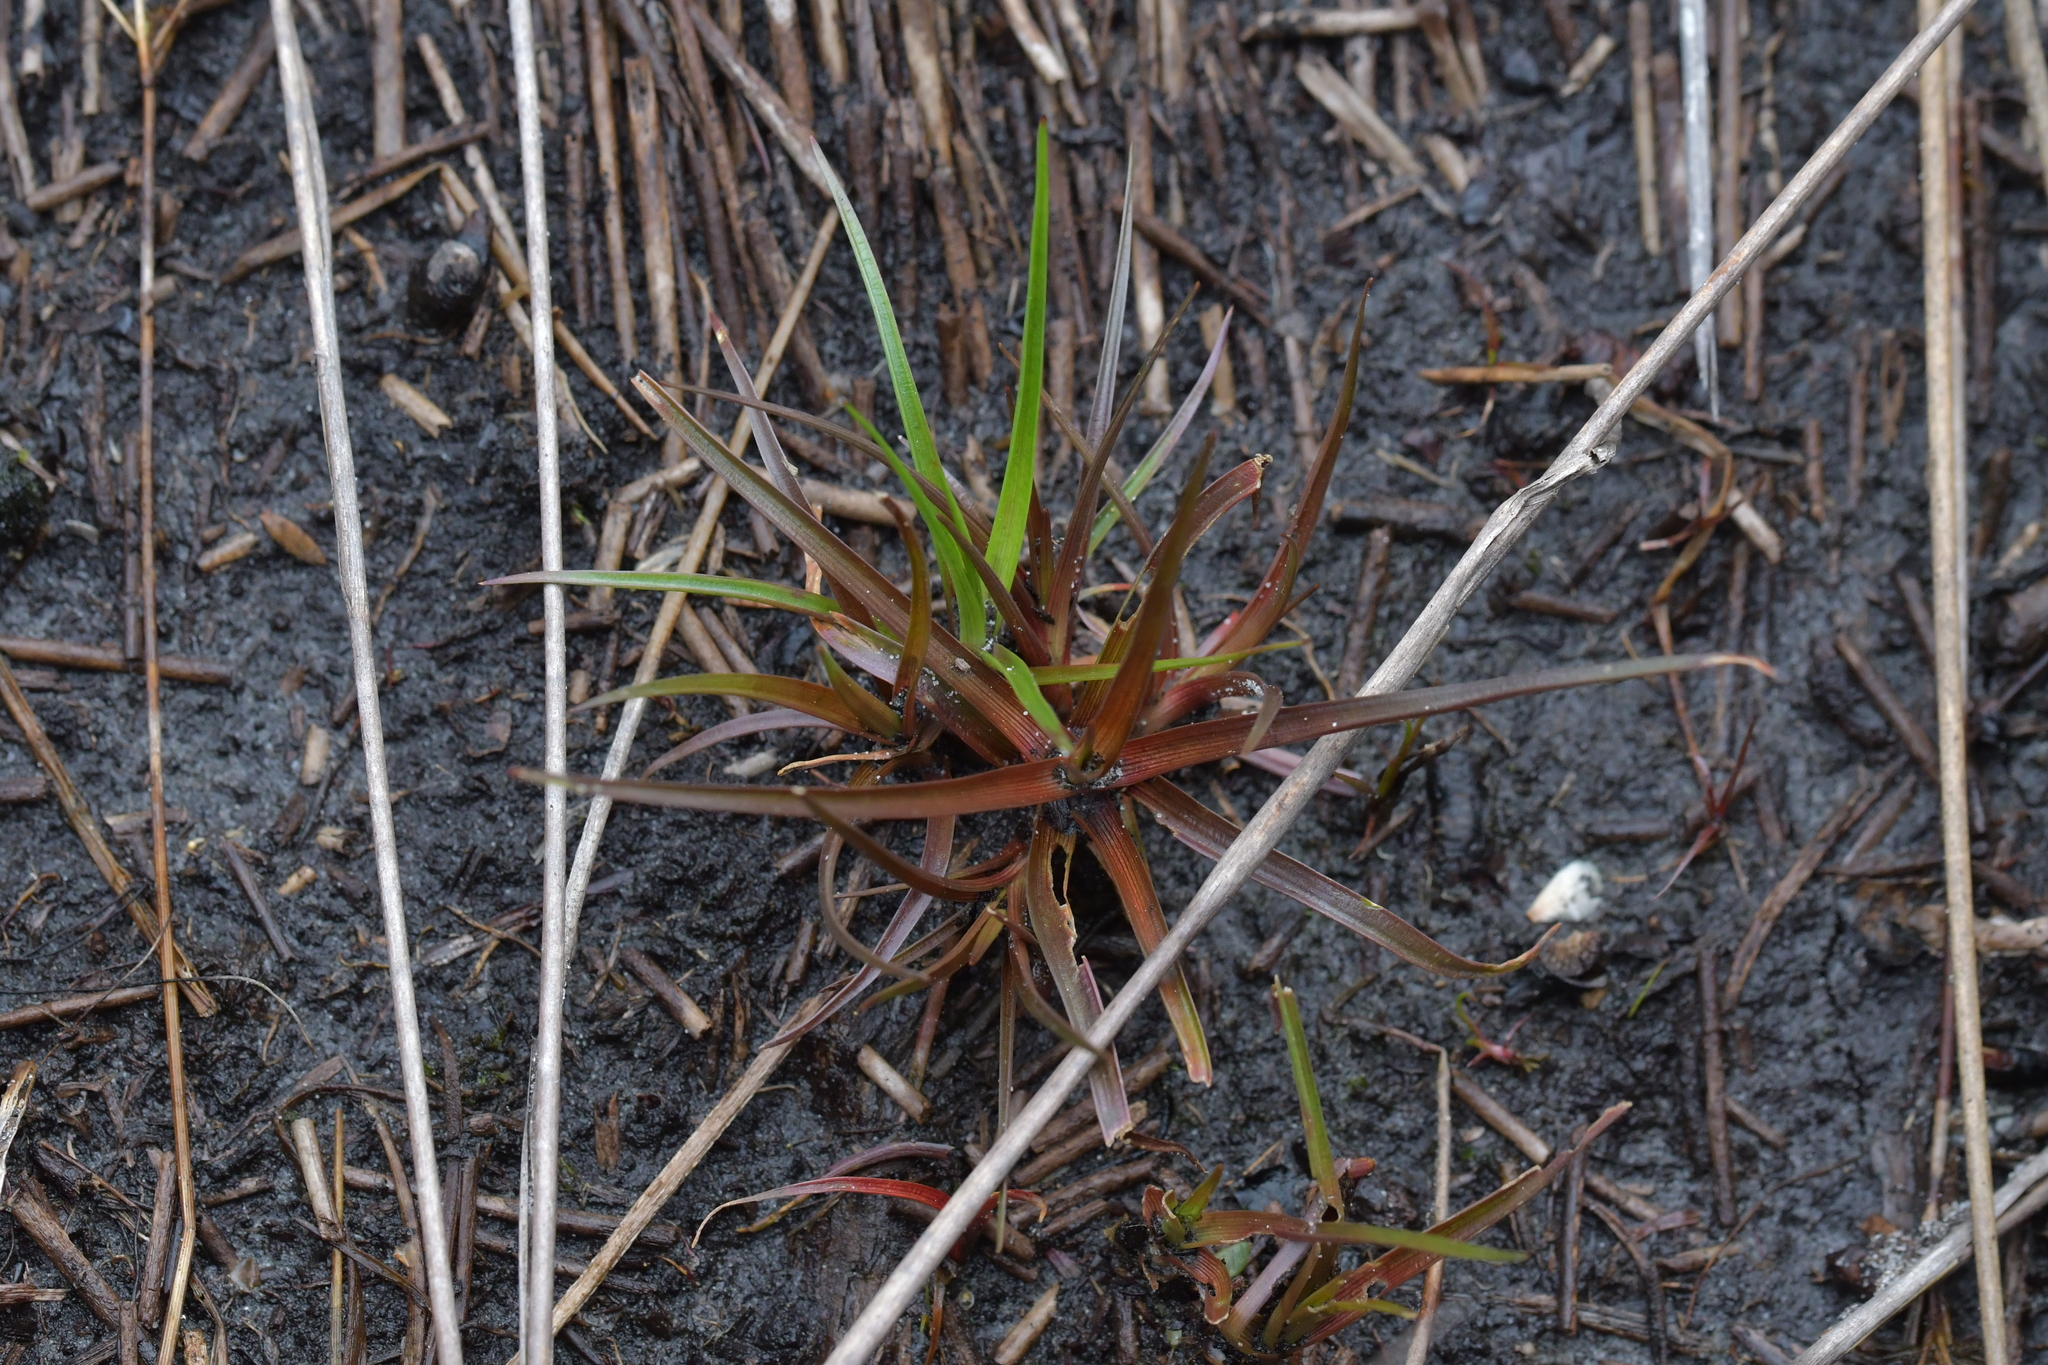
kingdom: Plantae
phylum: Tracheophyta
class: Liliopsida
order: Poales
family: Juncaceae
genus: Juncus
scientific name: Juncus planifolius
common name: Broadleaf rush
